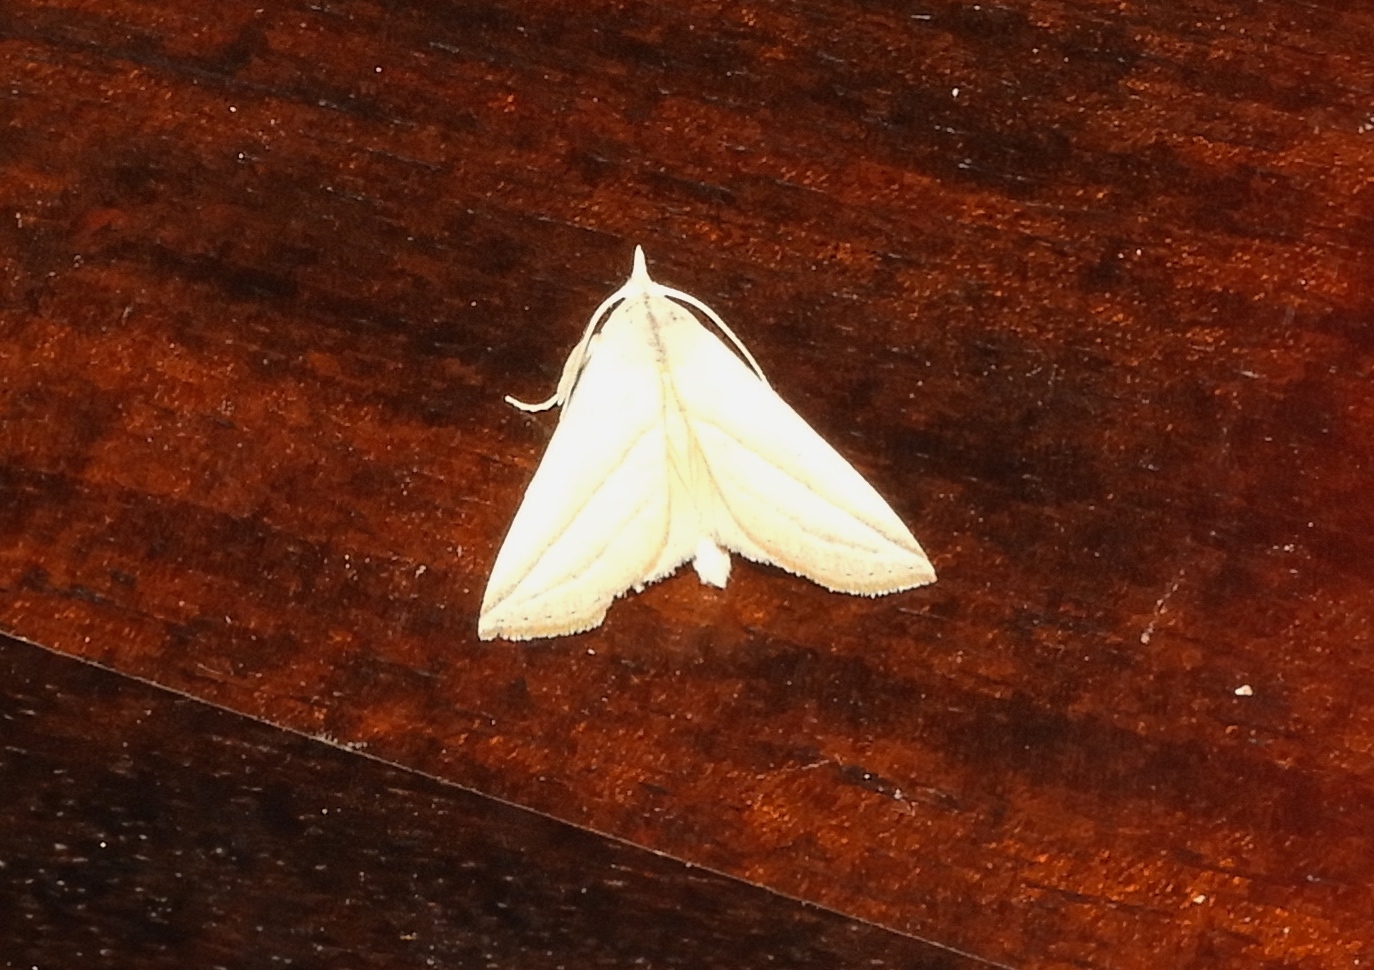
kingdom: Animalia
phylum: Arthropoda
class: Insecta
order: Lepidoptera
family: Erebidae
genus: Pharga
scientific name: Pharga pholausalis
